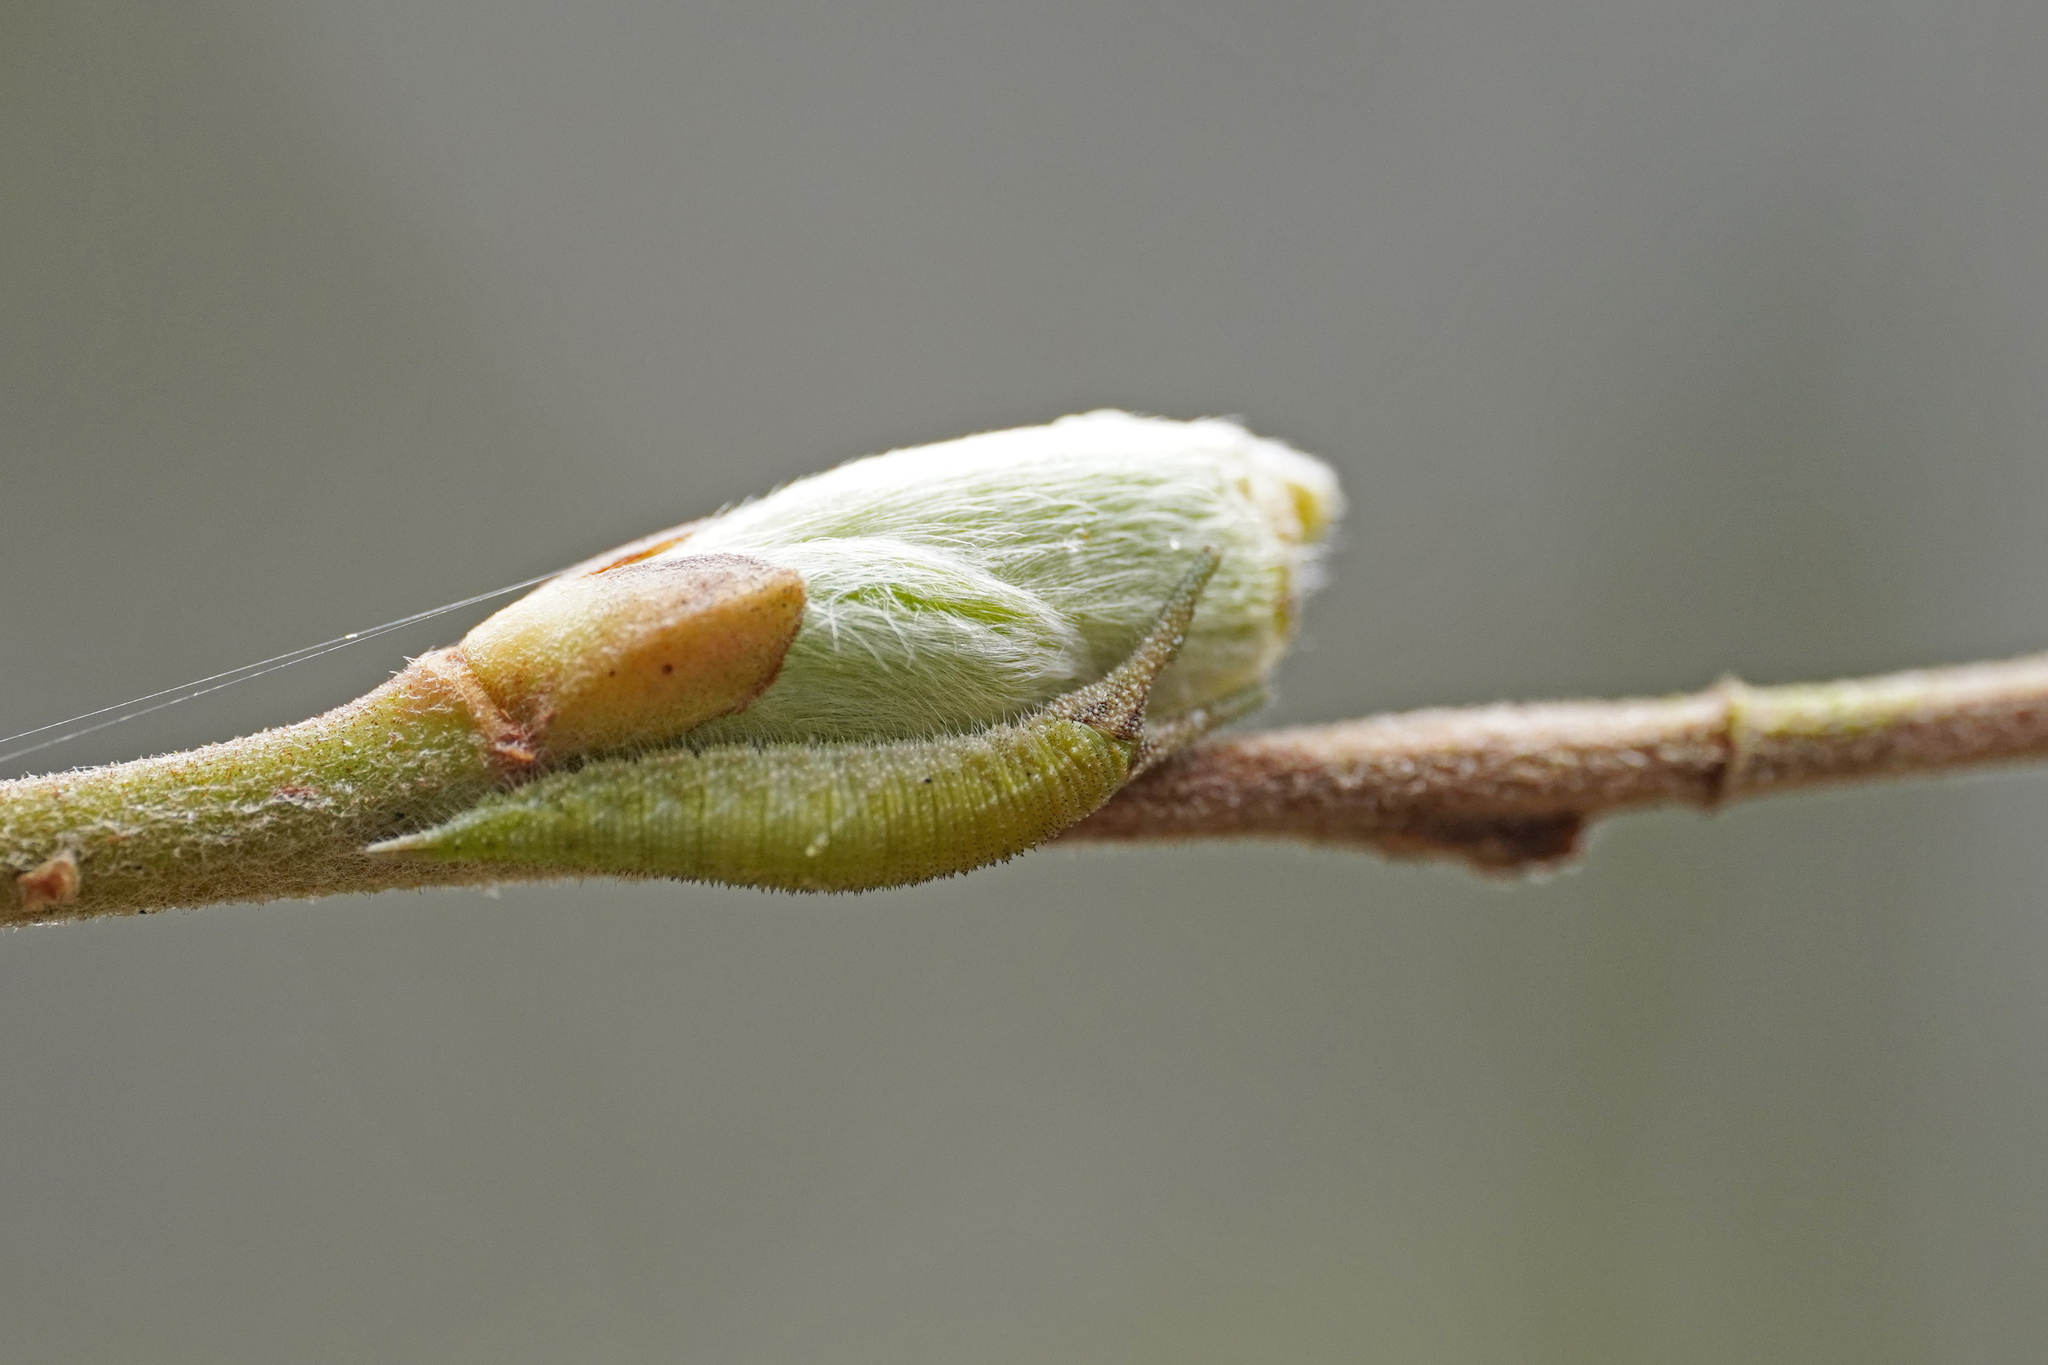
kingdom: Animalia
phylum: Arthropoda
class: Insecta
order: Lepidoptera
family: Nymphalidae
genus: Apatura
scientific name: Apatura iris
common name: Purple emperor
